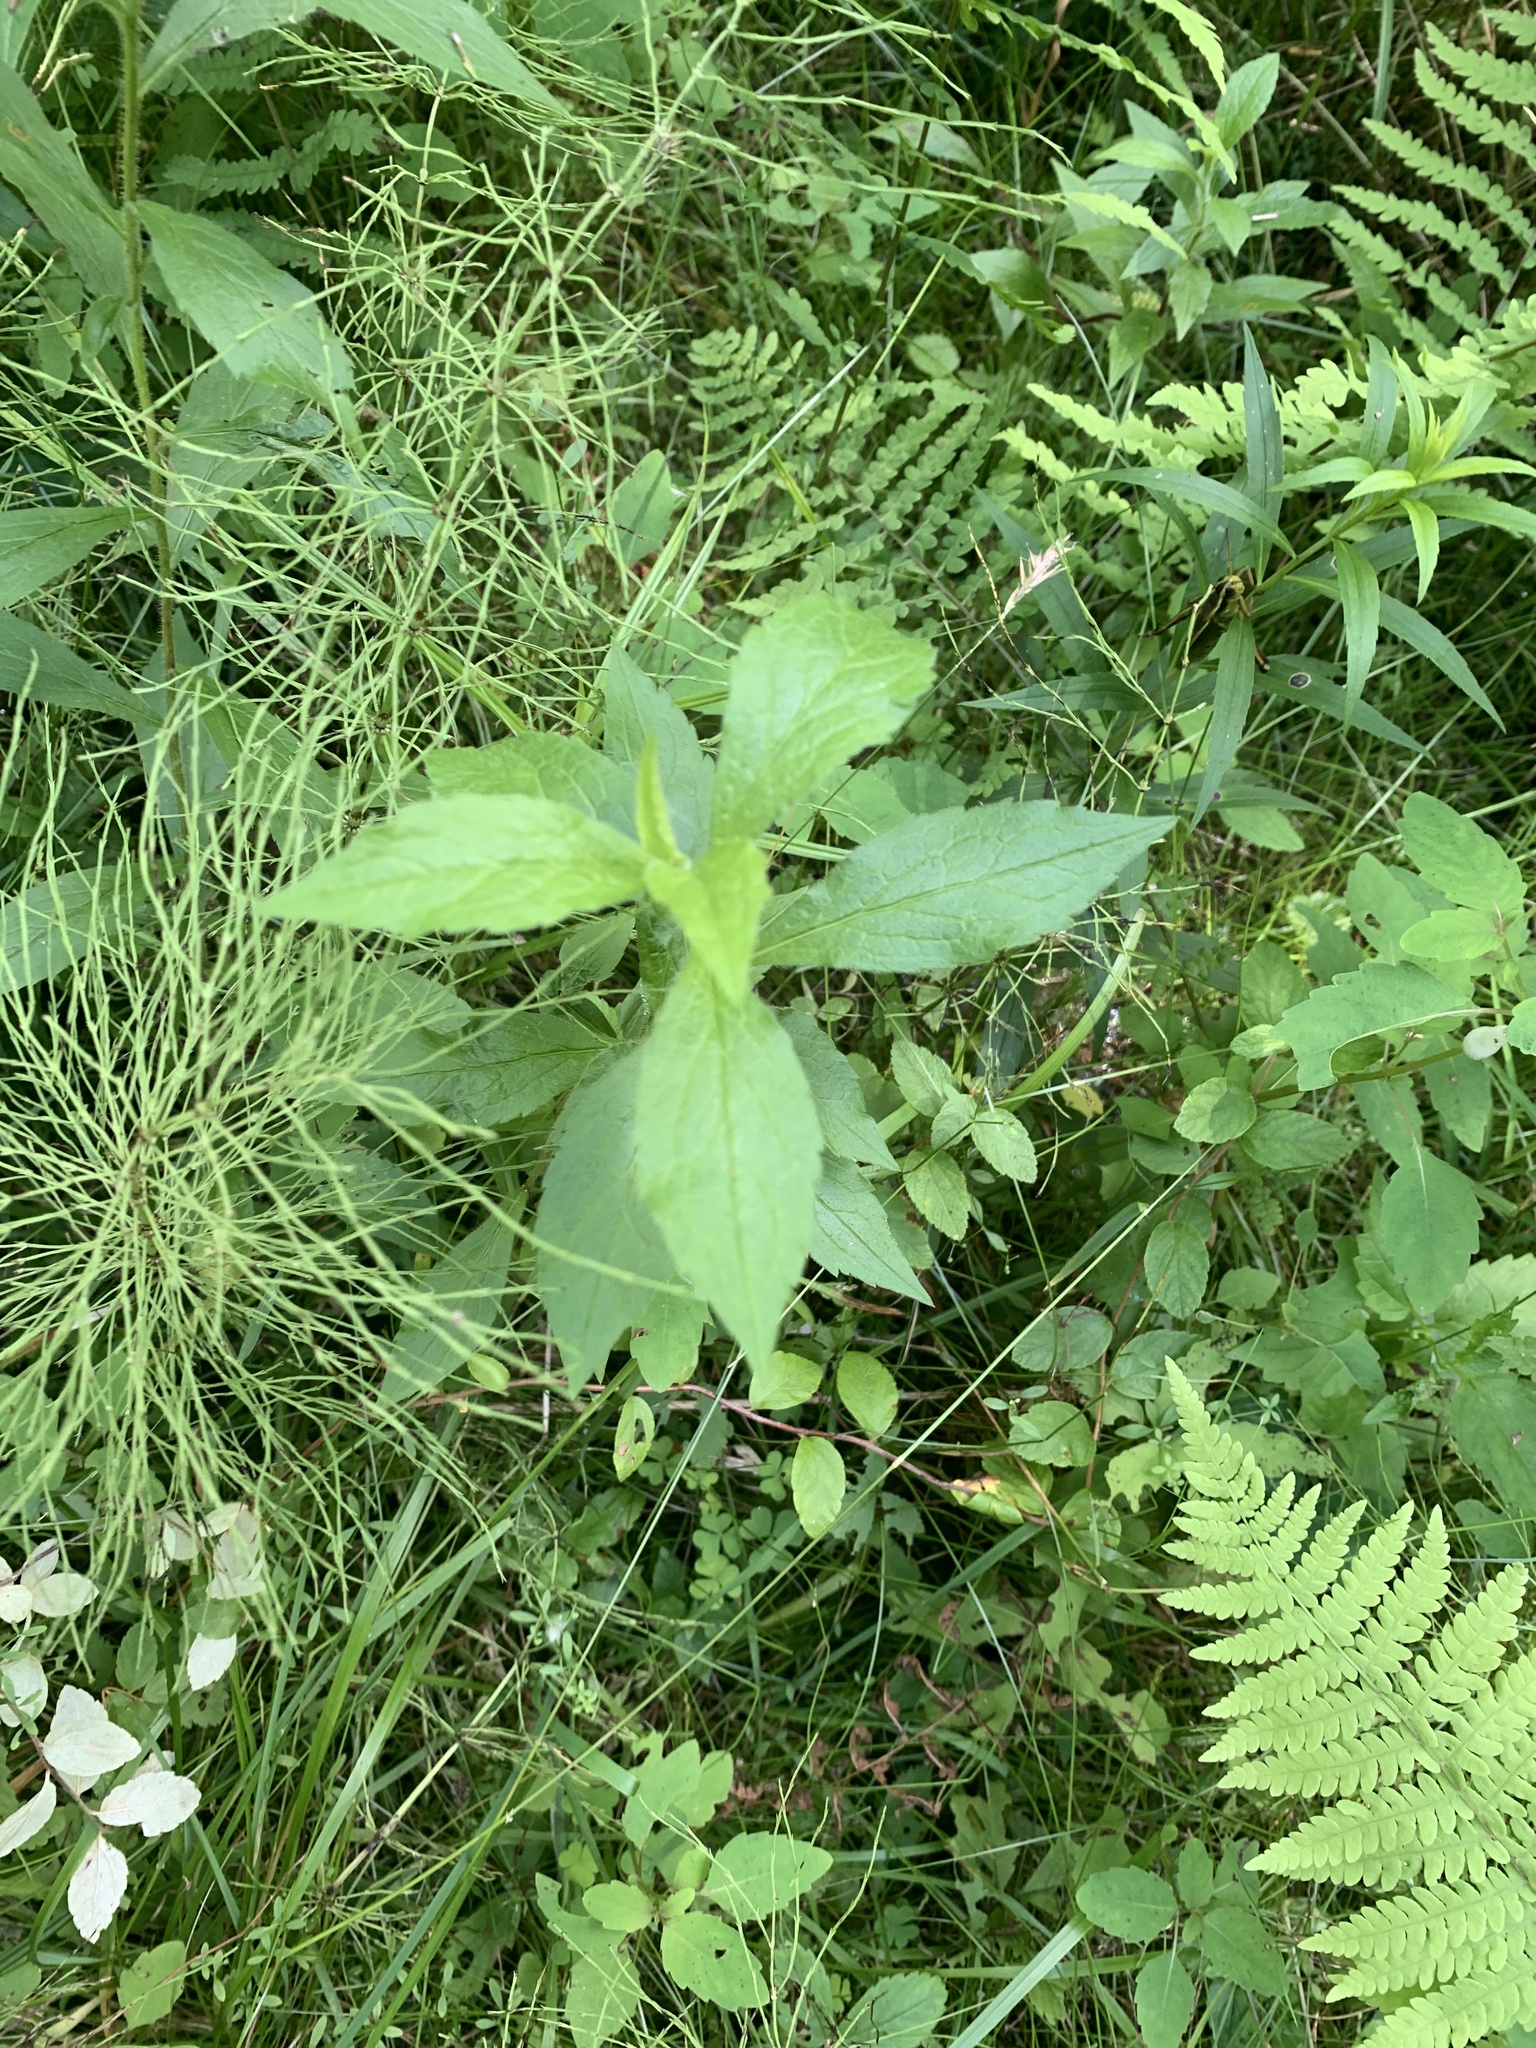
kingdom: Plantae
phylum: Tracheophyta
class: Magnoliopsida
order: Asterales
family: Asteraceae
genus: Solidago
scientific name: Solidago rugosa
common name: Rough-stemmed goldenrod
